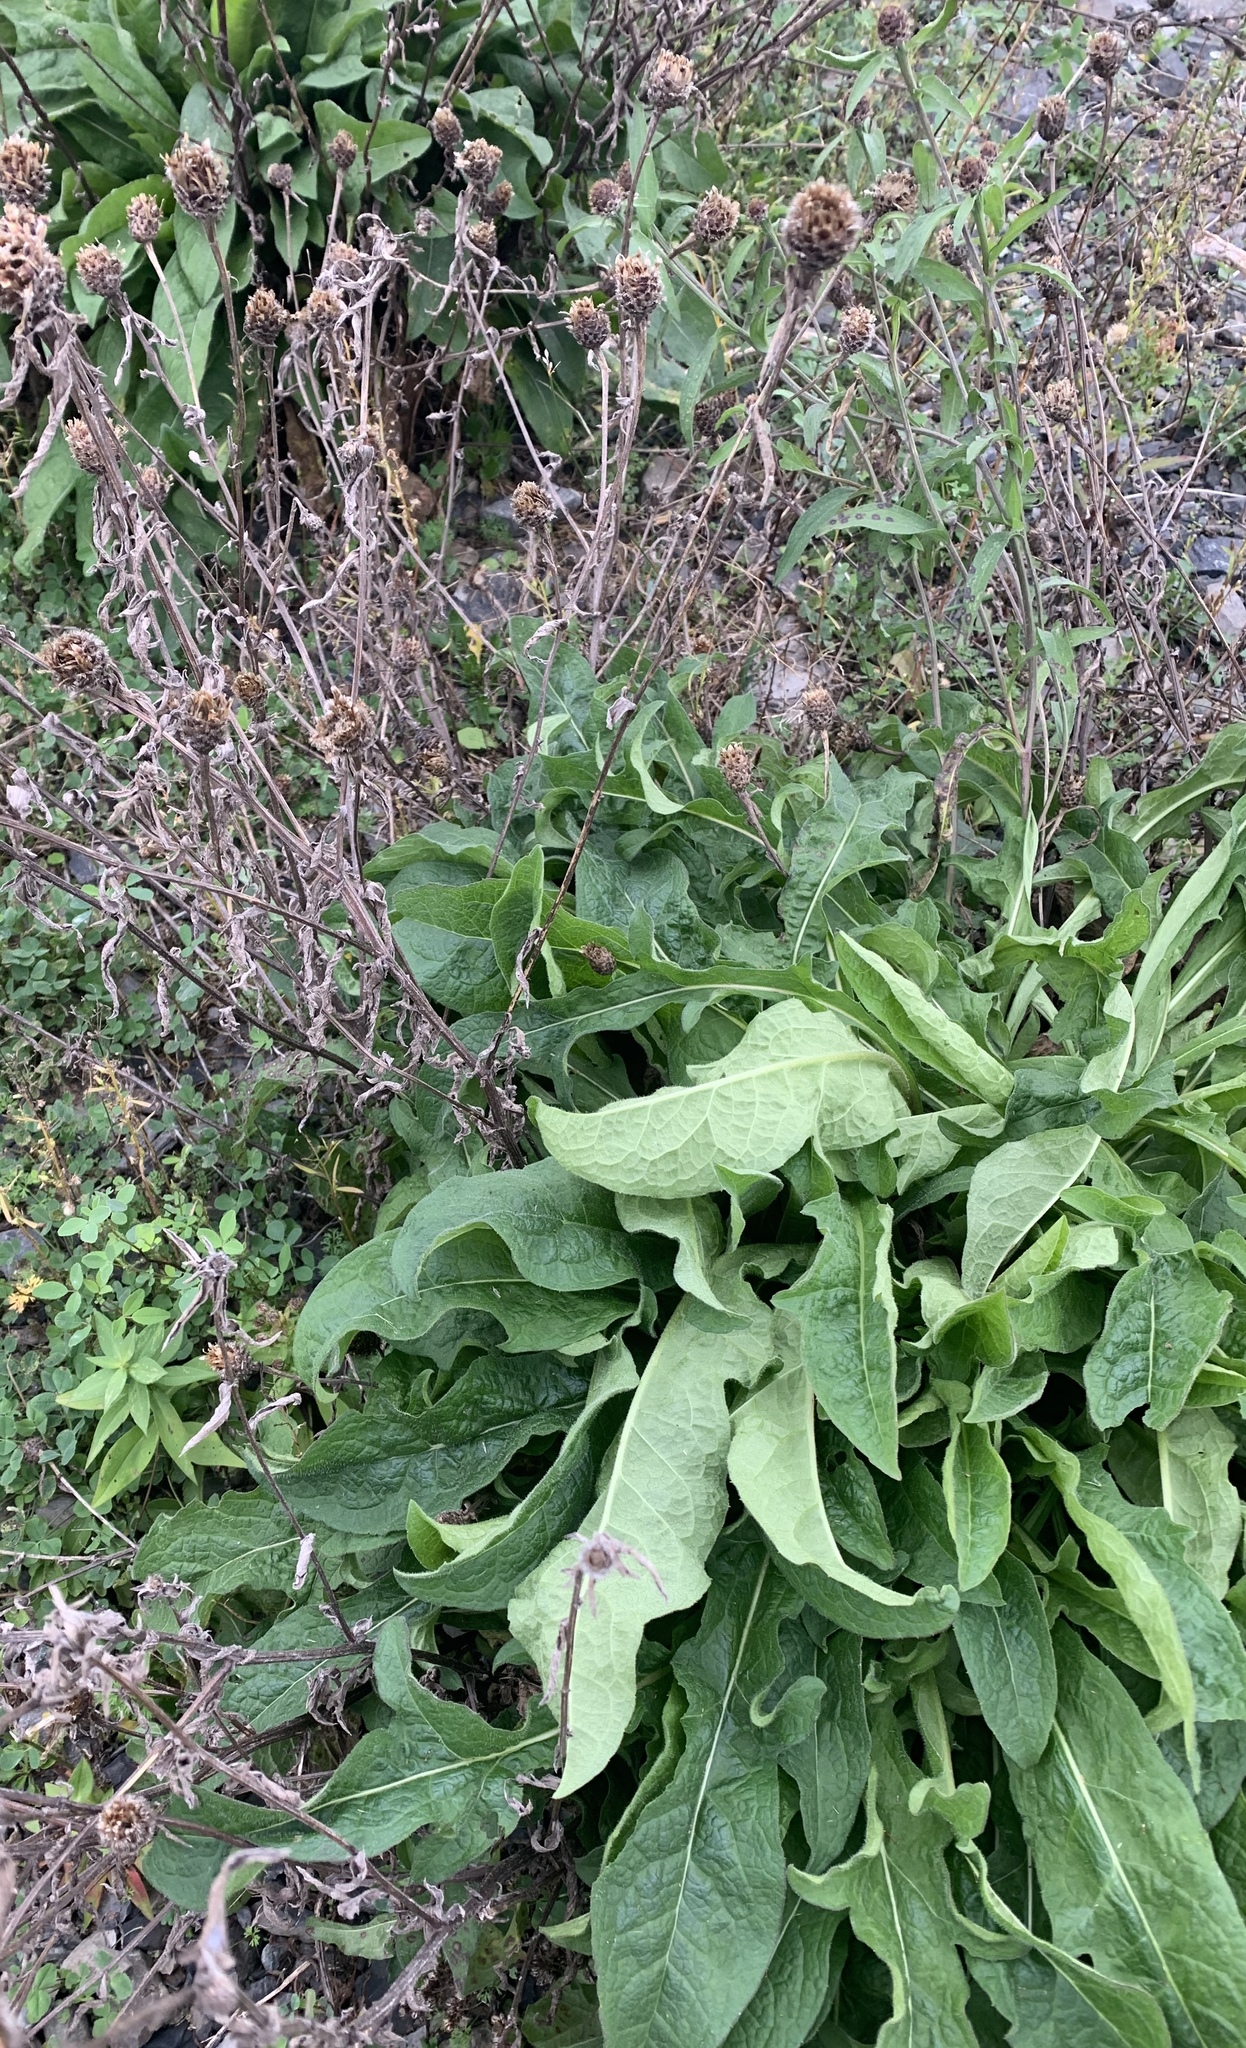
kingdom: Plantae
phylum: Tracheophyta
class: Magnoliopsida
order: Asterales
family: Asteraceae
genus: Centaurea
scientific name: Centaurea nigra
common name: Lesser knapweed
